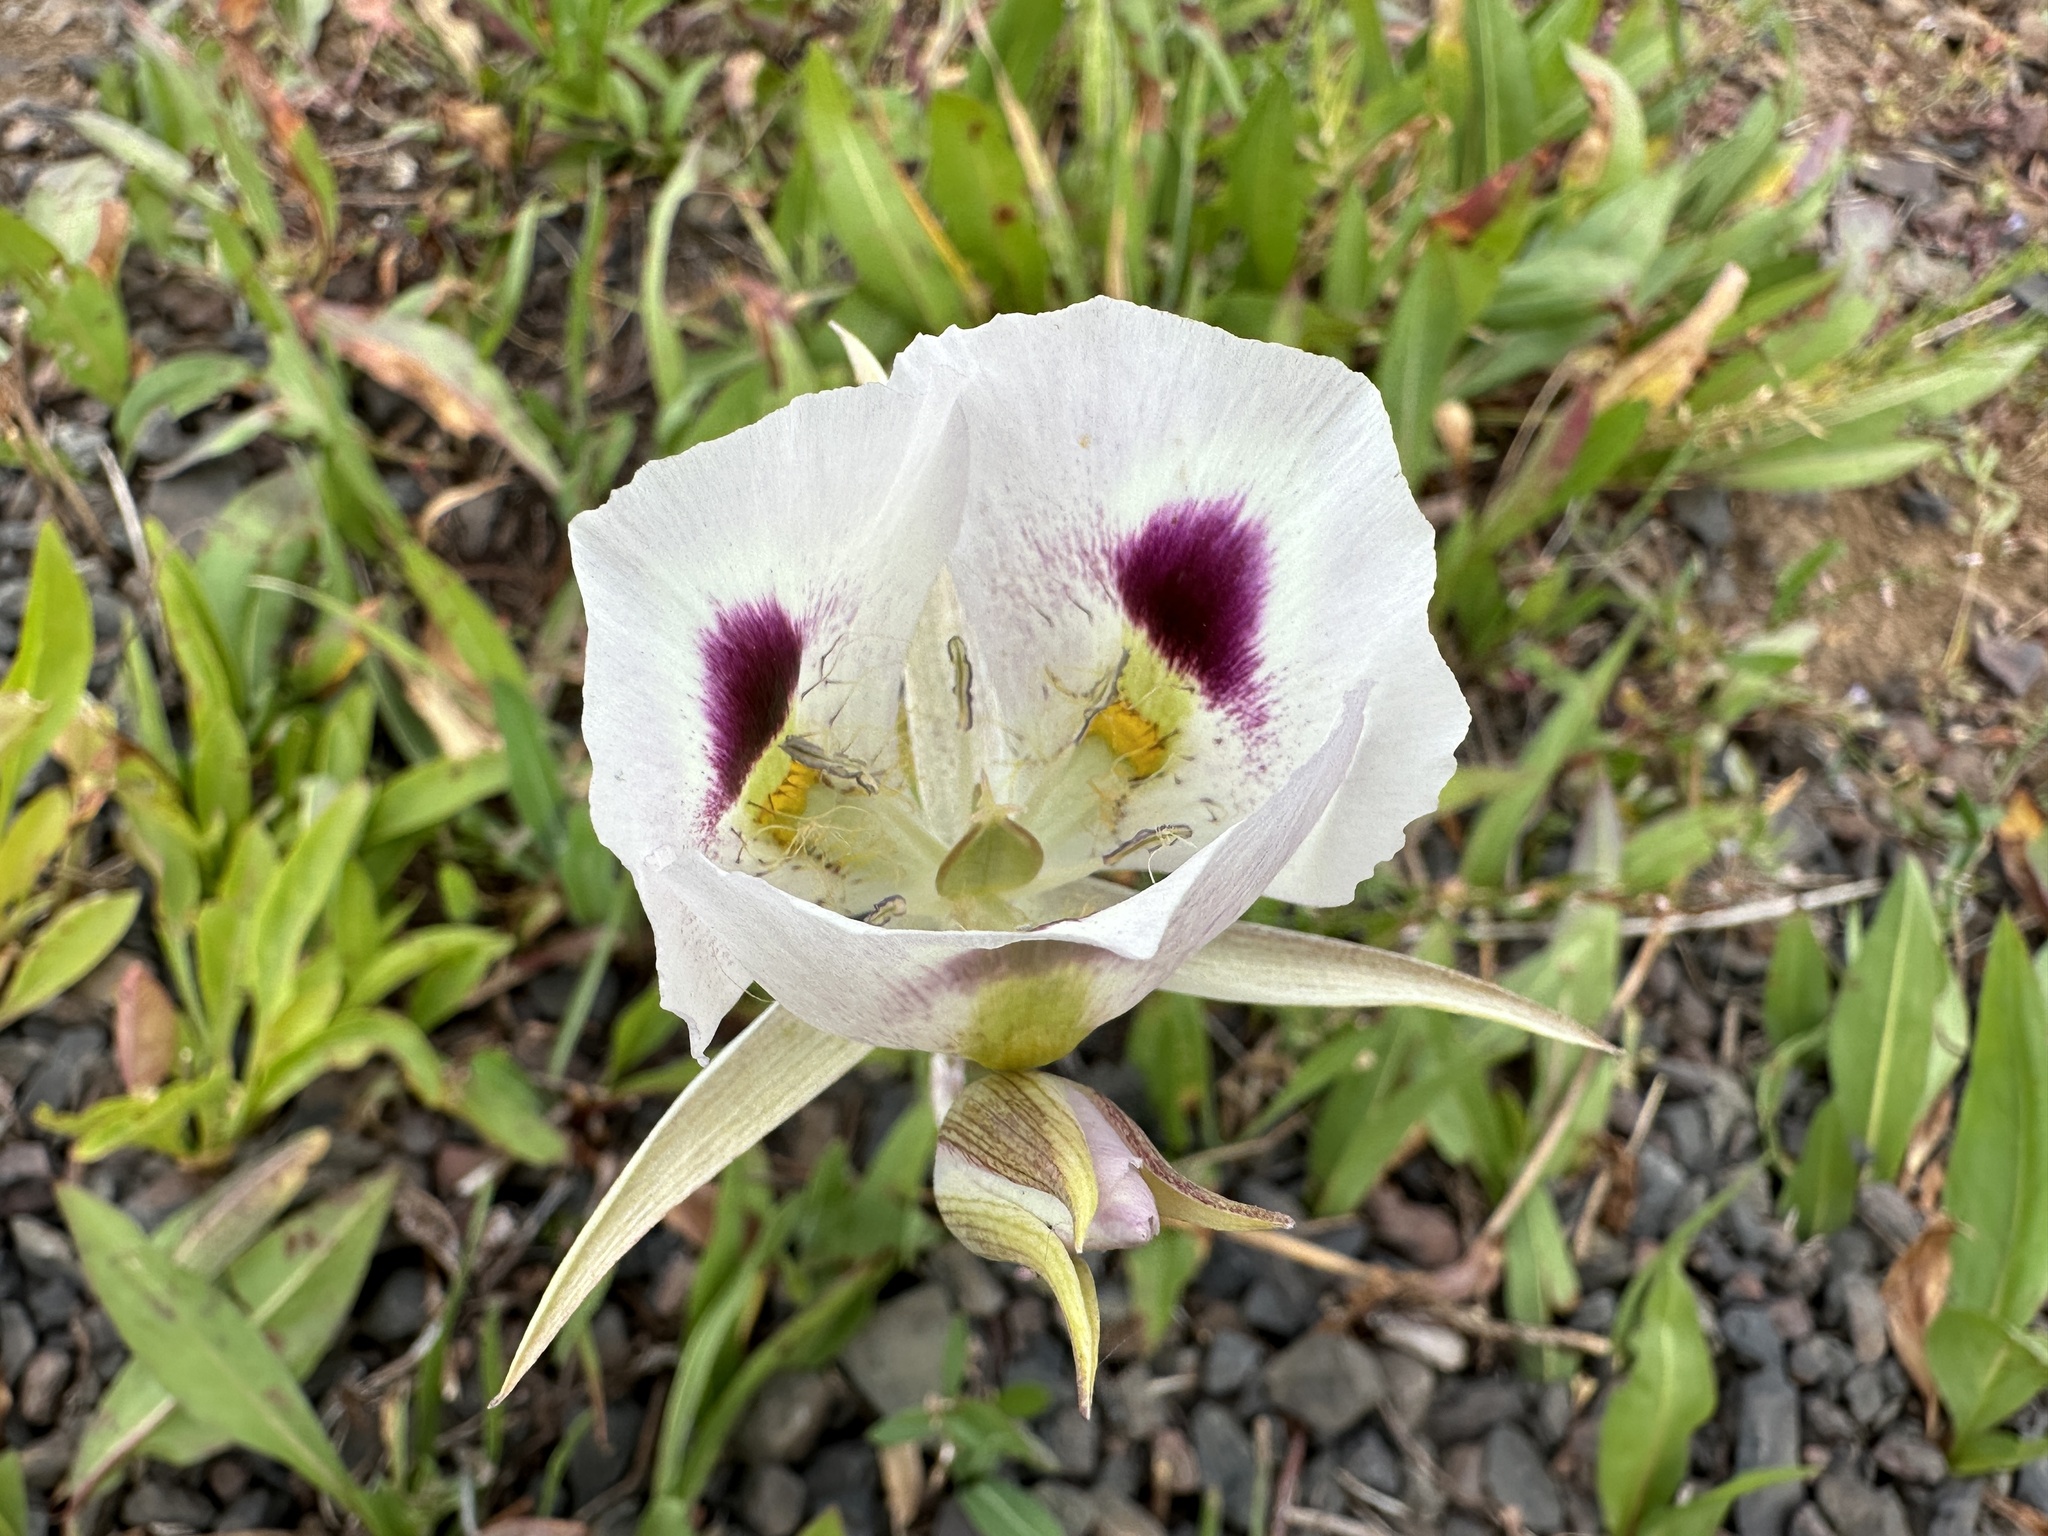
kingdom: Plantae
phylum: Tracheophyta
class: Liliopsida
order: Liliales
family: Liliaceae
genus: Calochortus
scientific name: Calochortus eurycarpus
